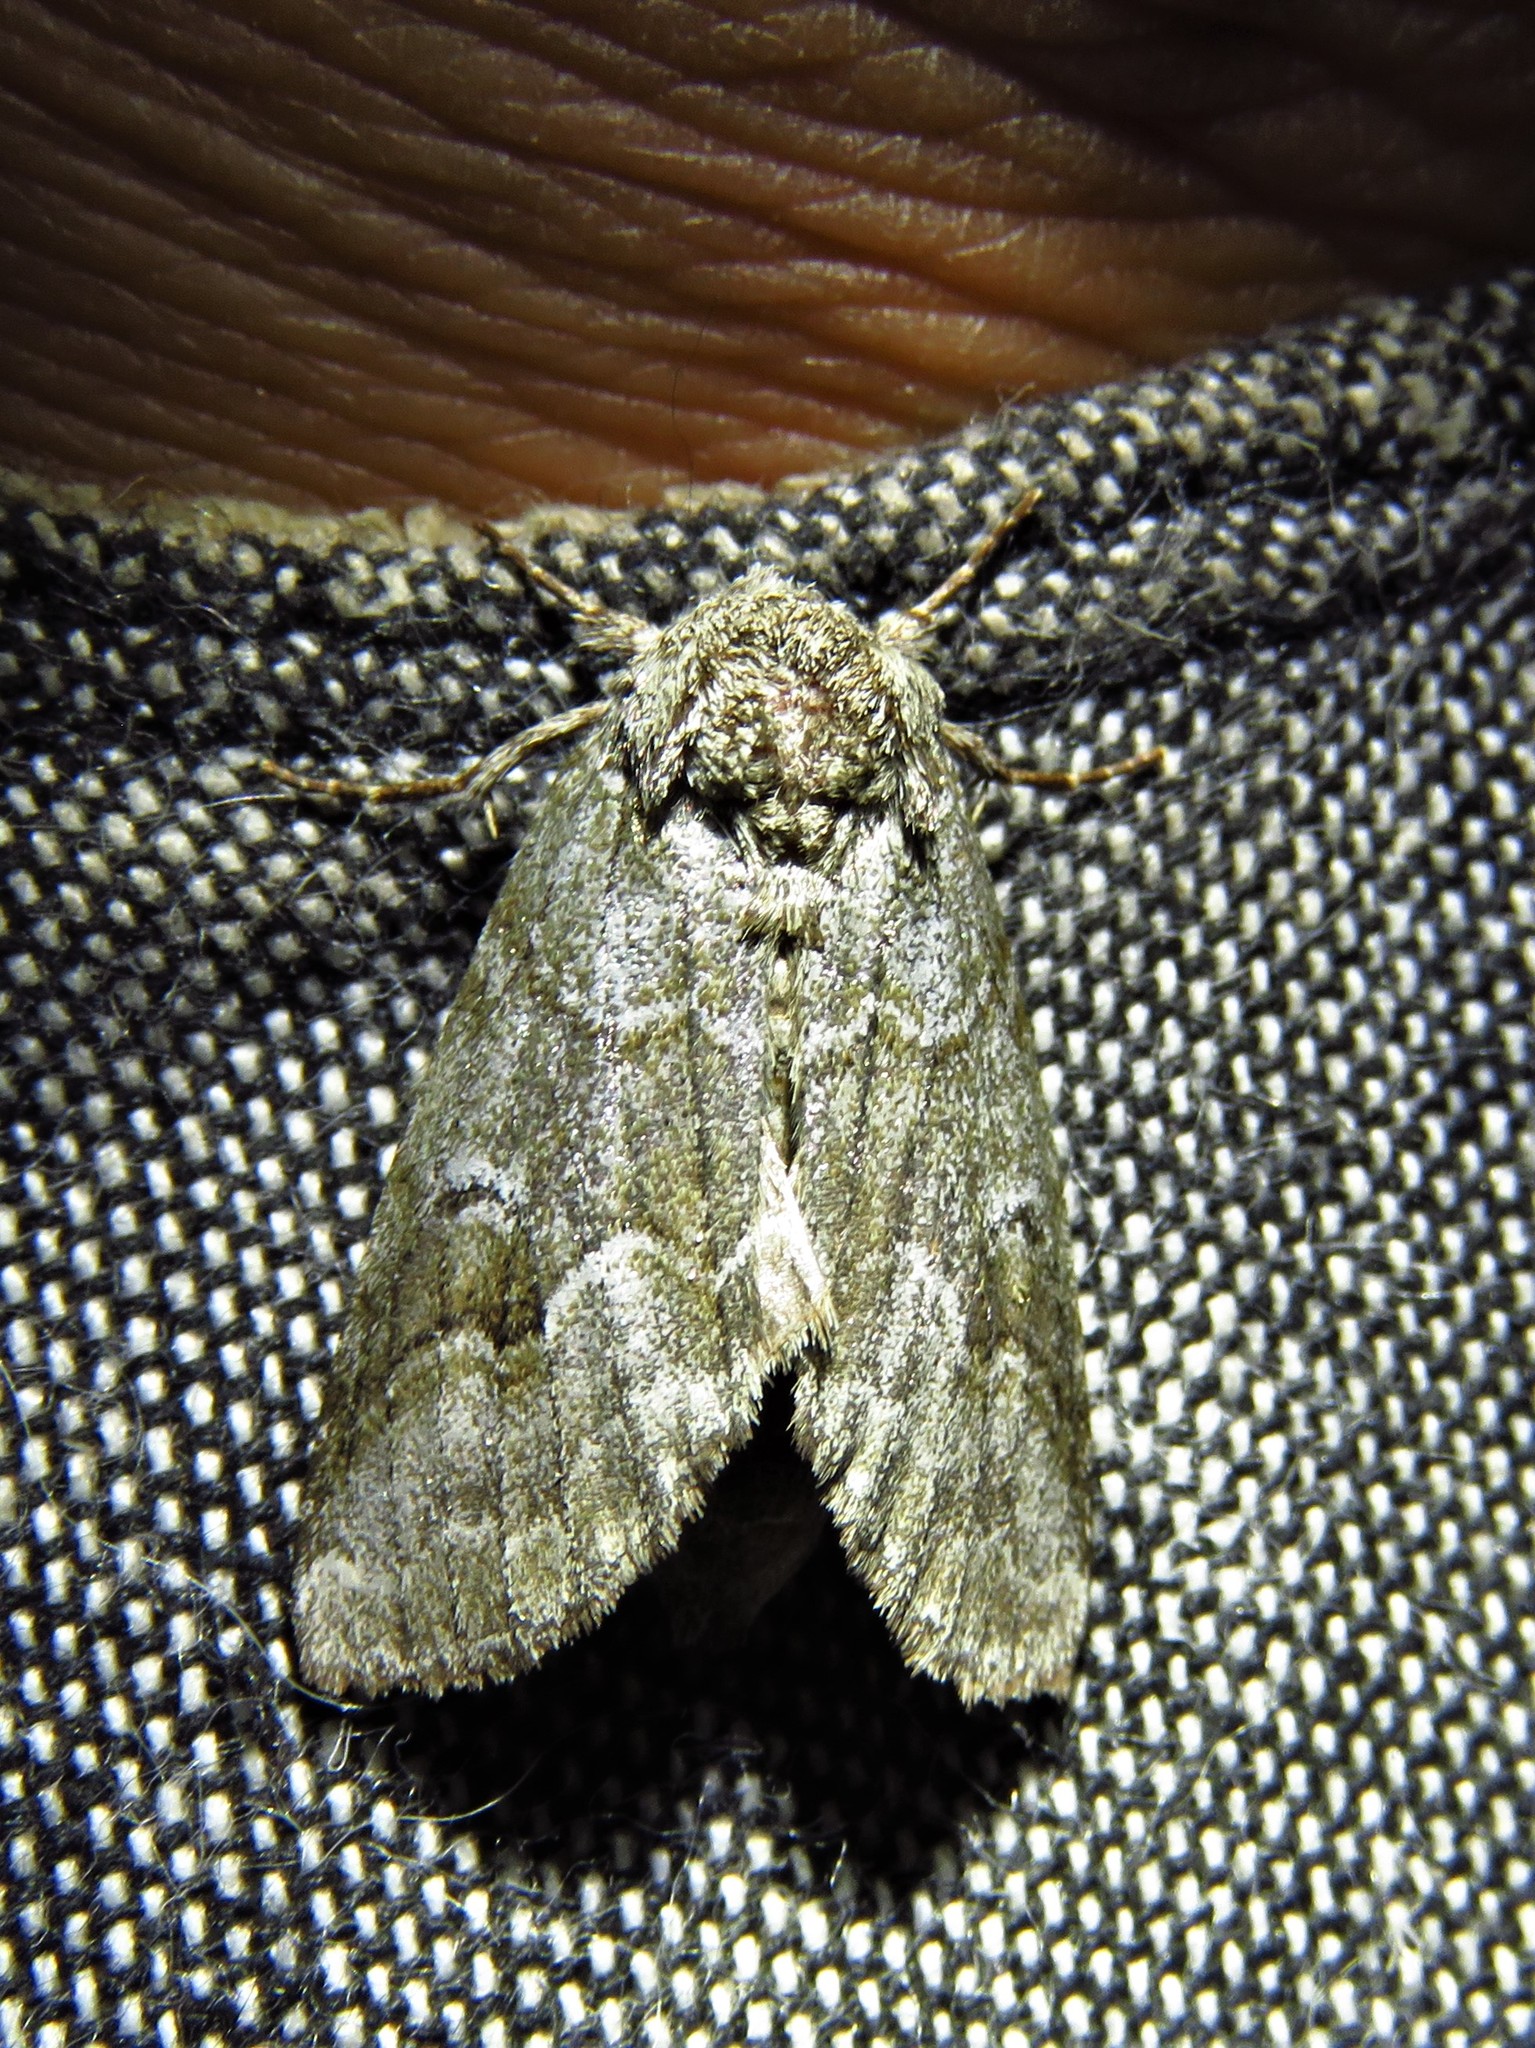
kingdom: Animalia
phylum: Arthropoda
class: Insecta
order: Lepidoptera
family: Notodontidae
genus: Lochmaeus
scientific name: Lochmaeus bilineata
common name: Double-lined prominent
